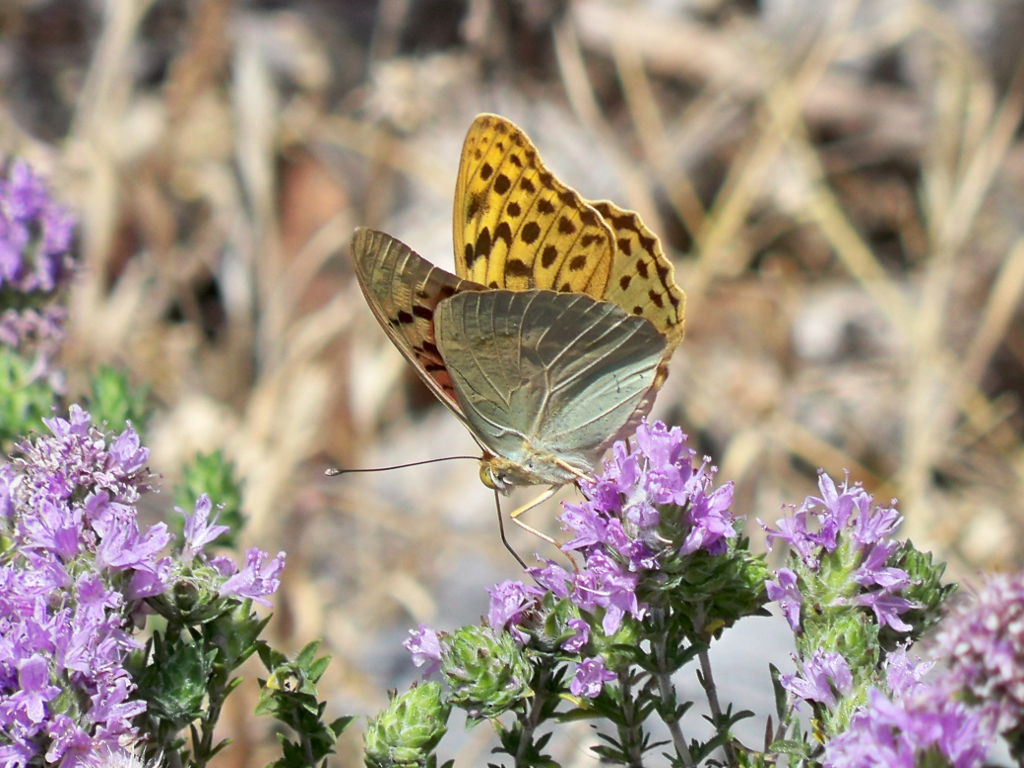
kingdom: Animalia
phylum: Arthropoda
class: Insecta
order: Lepidoptera
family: Nymphalidae
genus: Damora
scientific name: Damora pandora
